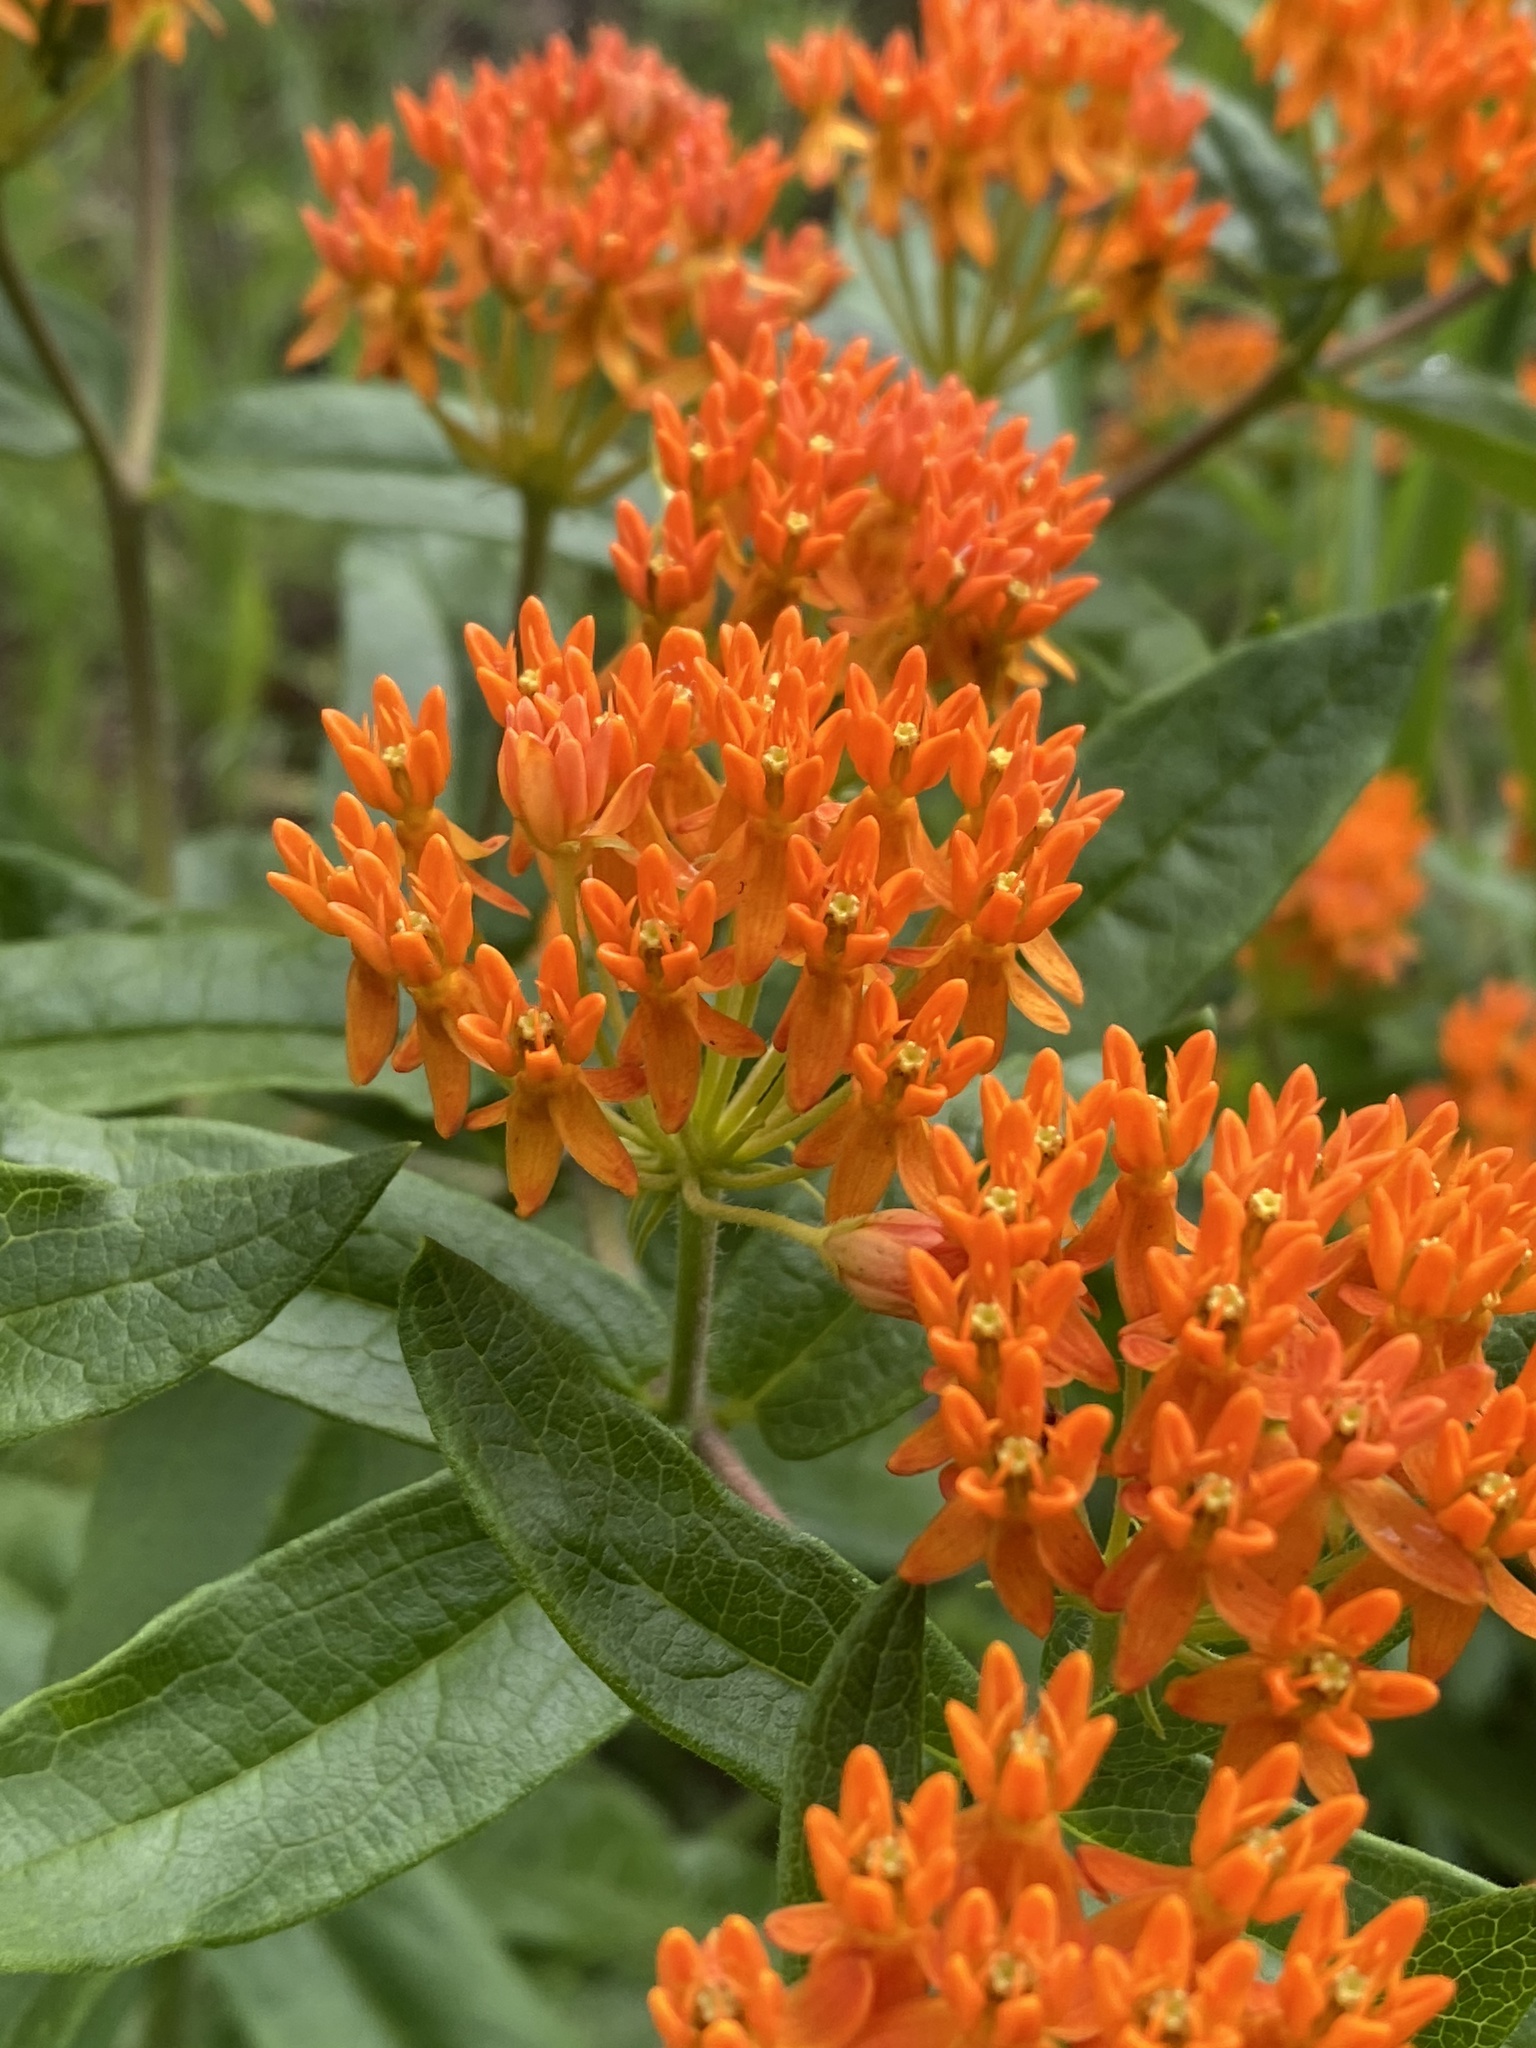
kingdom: Plantae
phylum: Tracheophyta
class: Magnoliopsida
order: Gentianales
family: Apocynaceae
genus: Asclepias
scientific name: Asclepias tuberosa
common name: Butterfly milkweed
